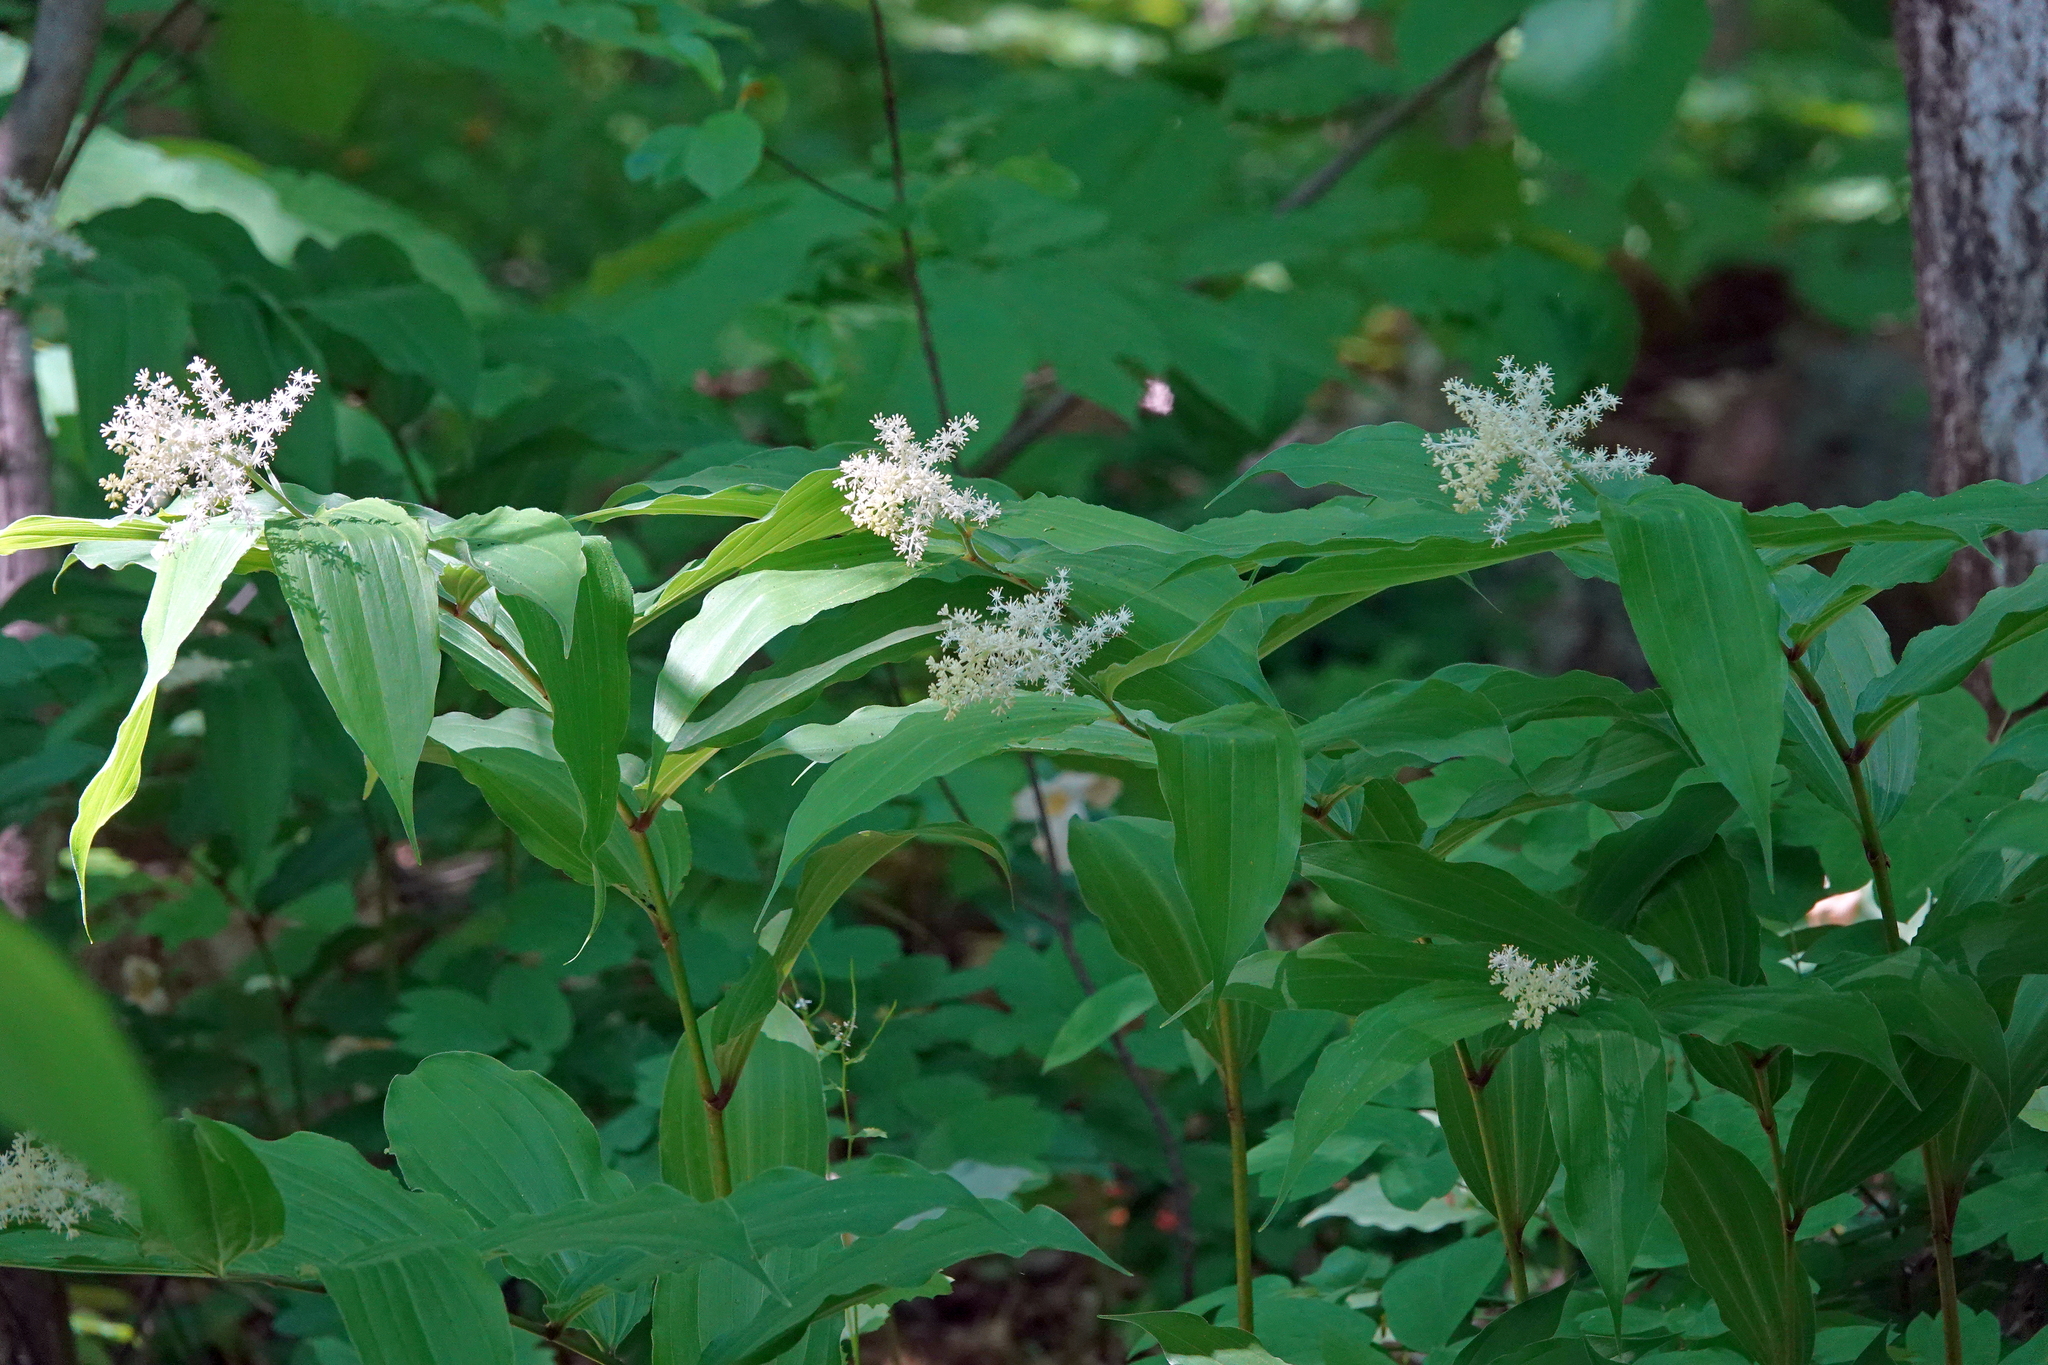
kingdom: Plantae
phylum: Tracheophyta
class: Liliopsida
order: Asparagales
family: Asparagaceae
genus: Maianthemum
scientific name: Maianthemum racemosum
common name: False spikenard
